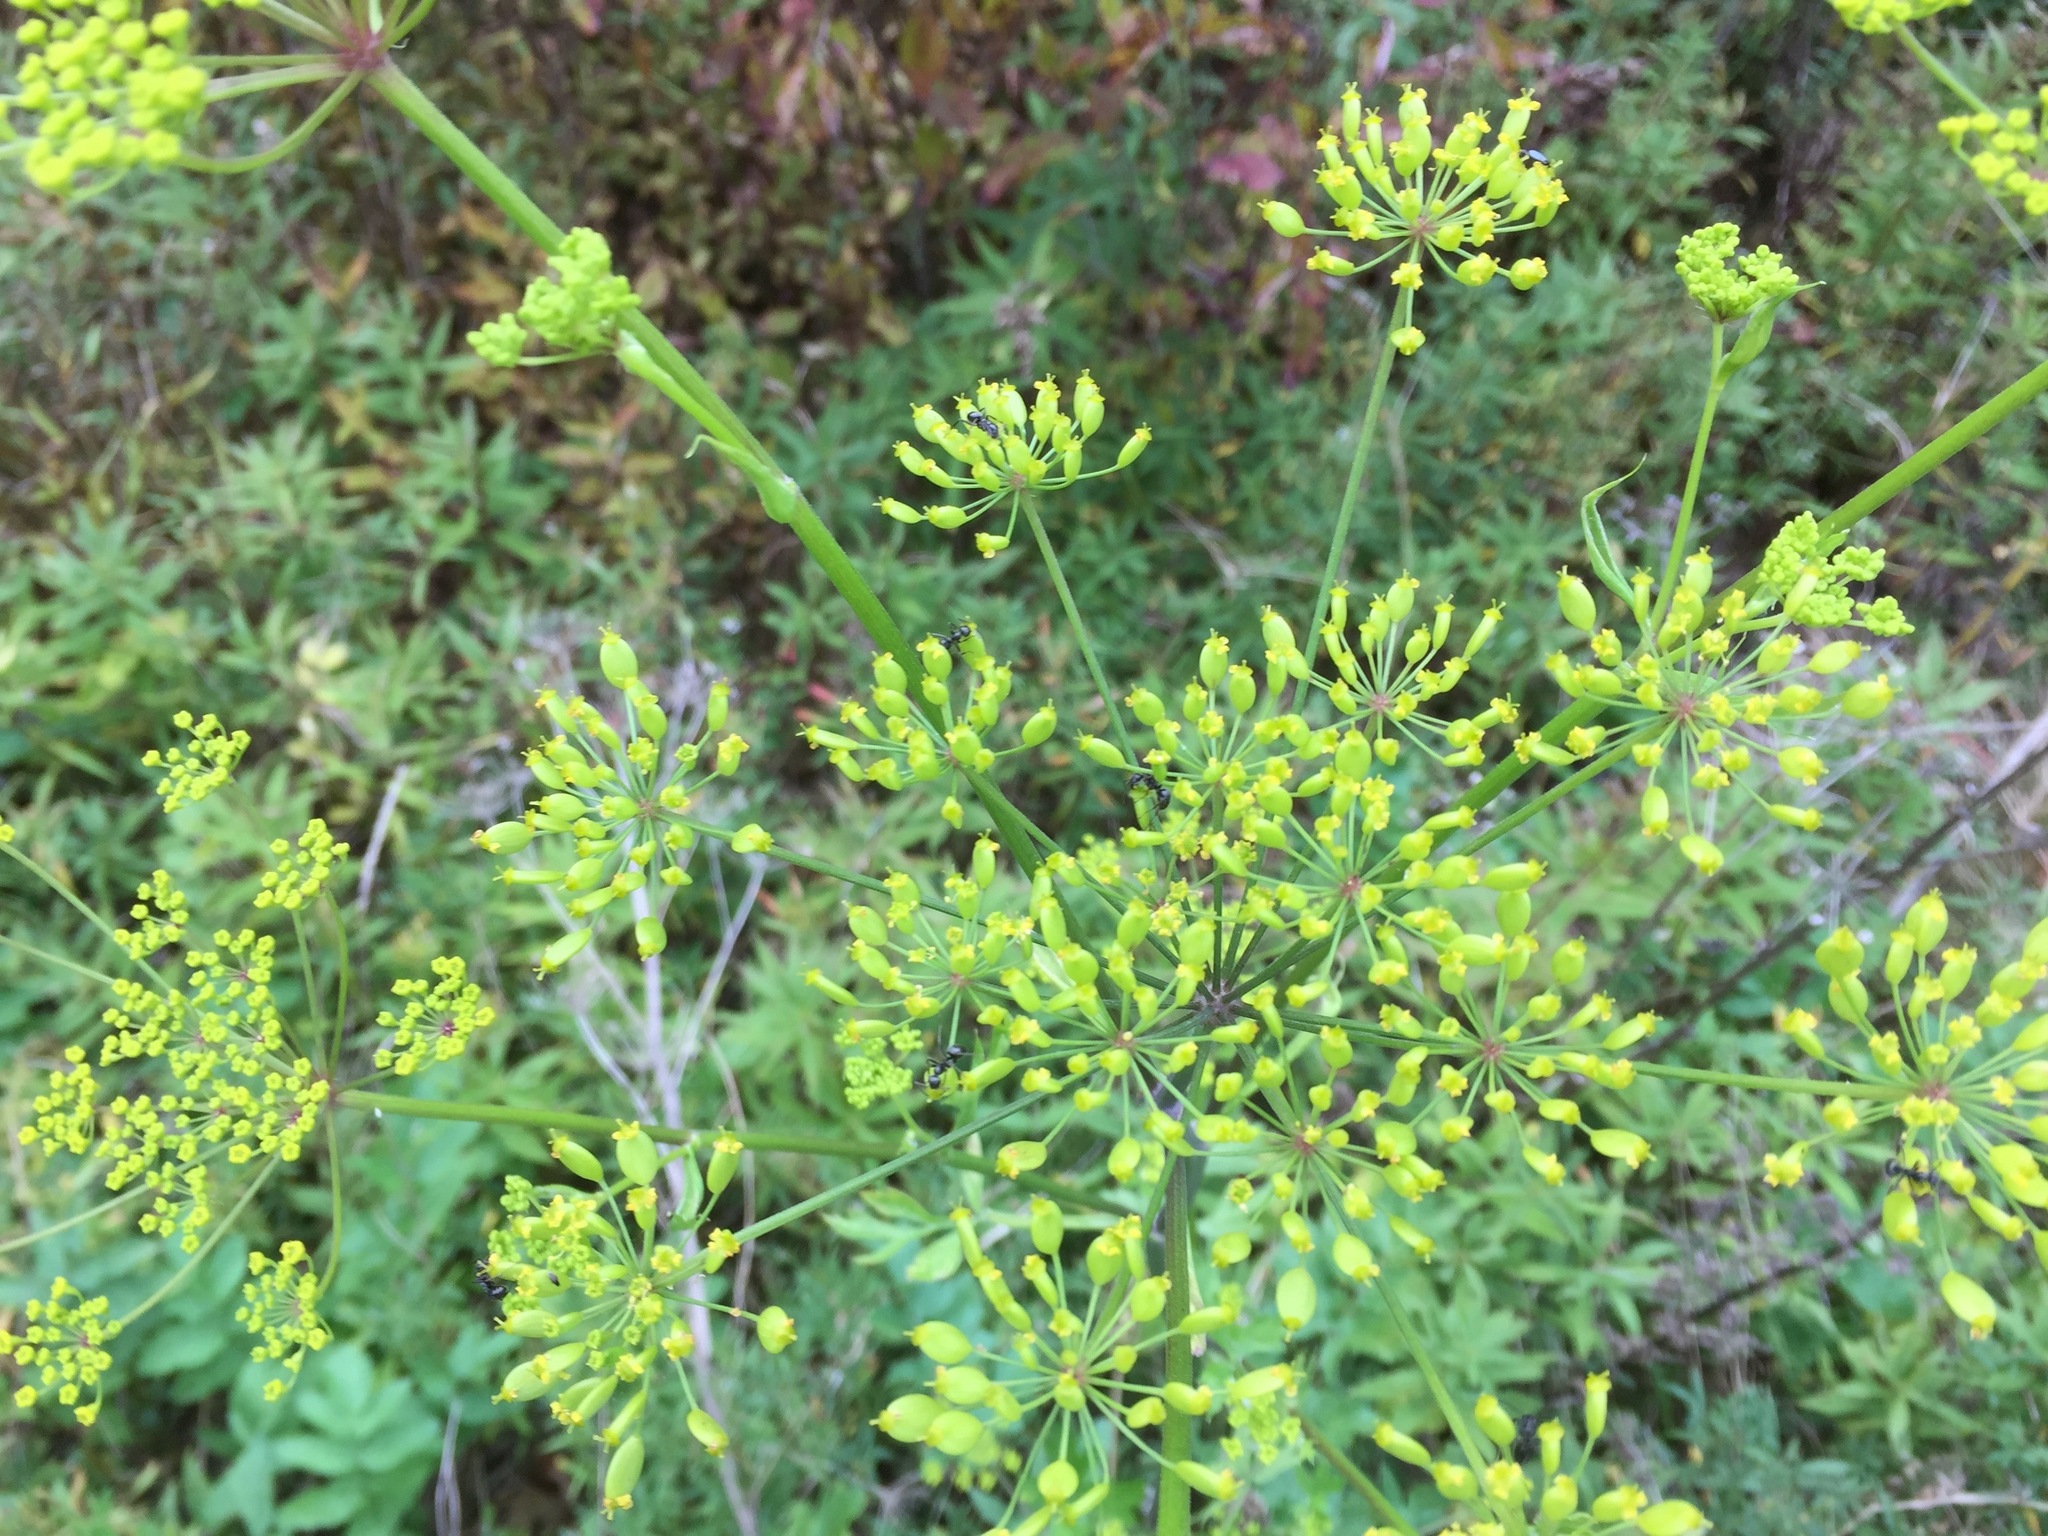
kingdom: Plantae
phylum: Tracheophyta
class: Magnoliopsida
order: Apiales
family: Apiaceae
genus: Pastinaca
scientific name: Pastinaca sativa
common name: Wild parsnip
